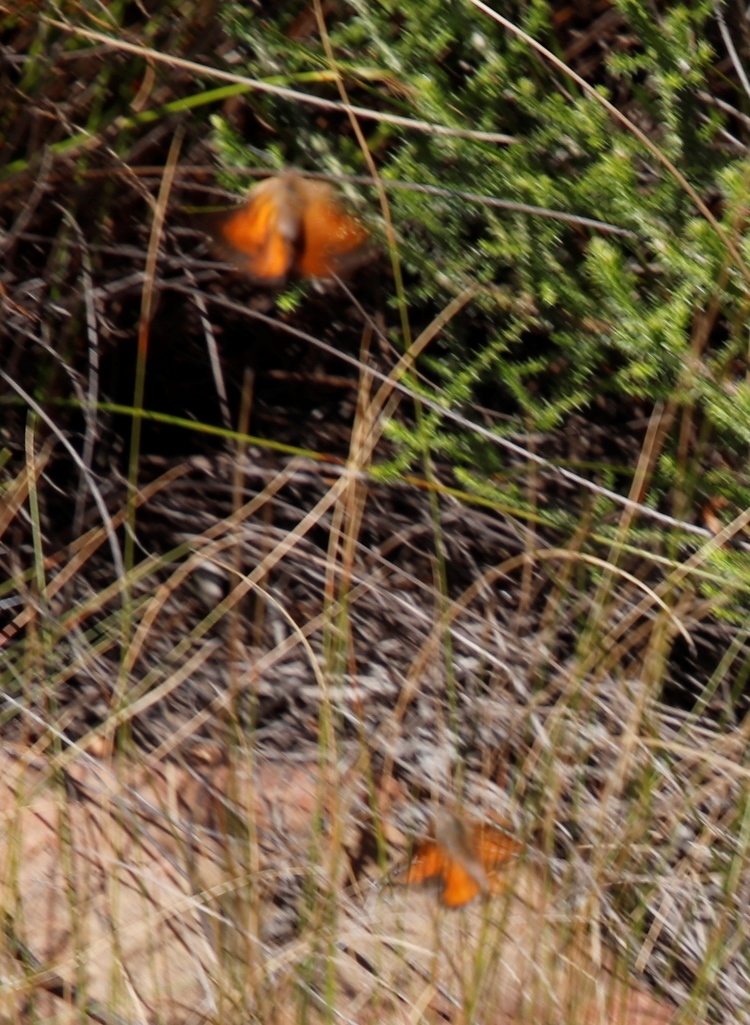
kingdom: Animalia
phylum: Arthropoda
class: Insecta
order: Lepidoptera
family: Lycaenidae
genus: Aloeides
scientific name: Aloeides thyra
